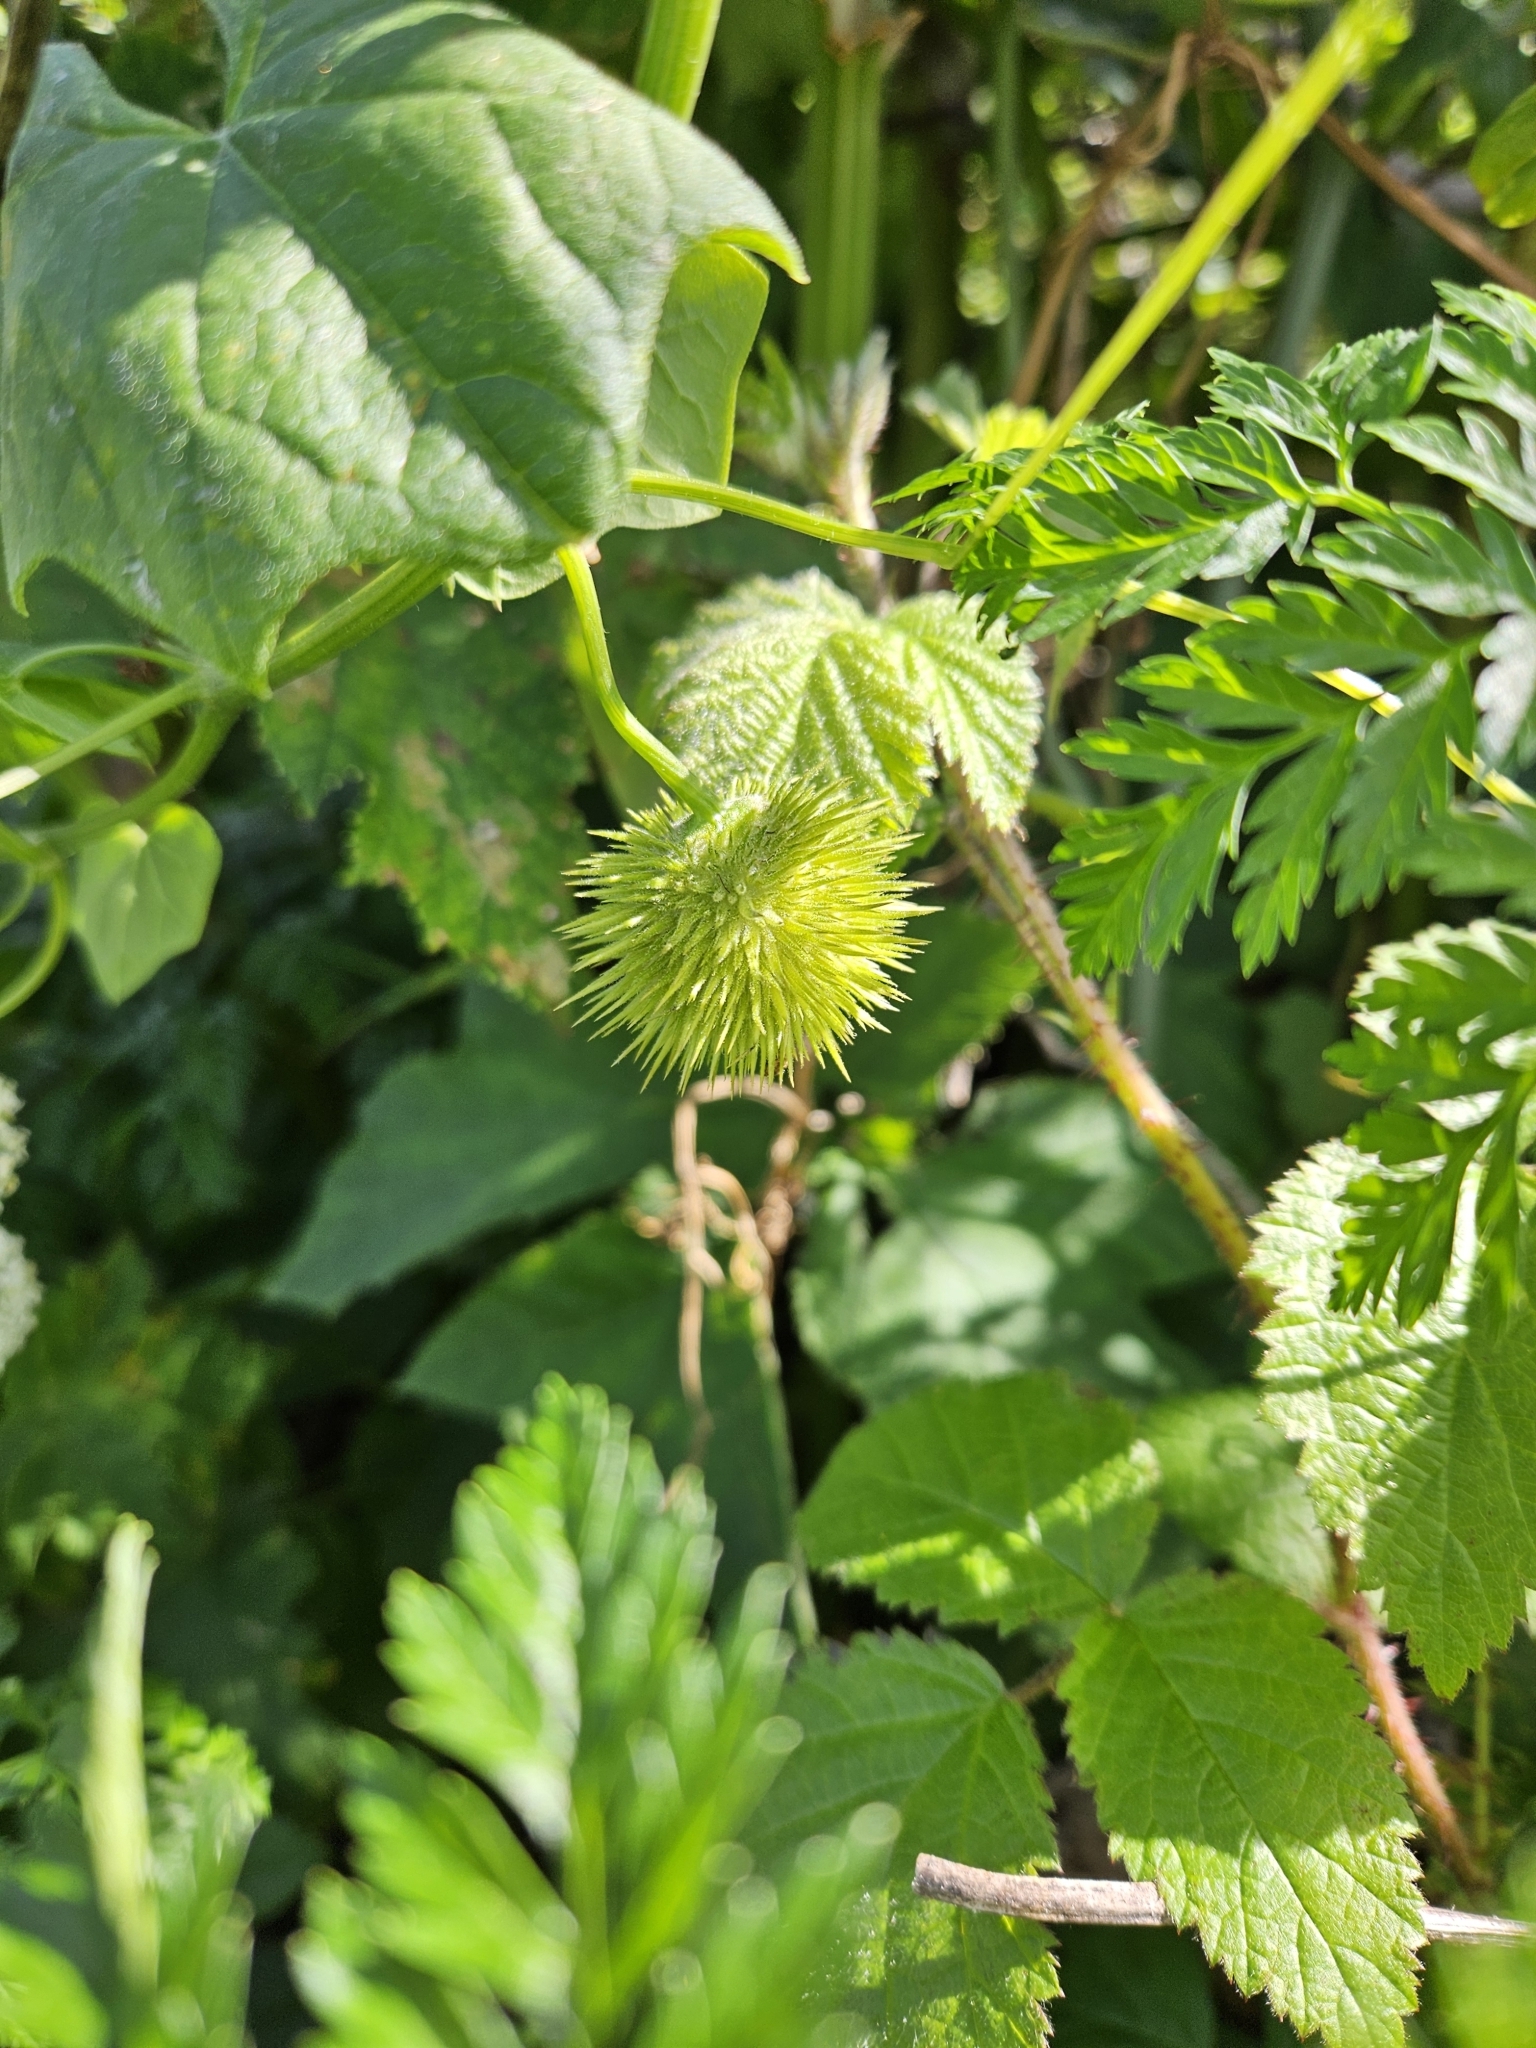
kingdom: Plantae
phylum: Tracheophyta
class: Magnoliopsida
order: Cucurbitales
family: Cucurbitaceae
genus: Marah
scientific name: Marah fabacea
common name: California manroot
